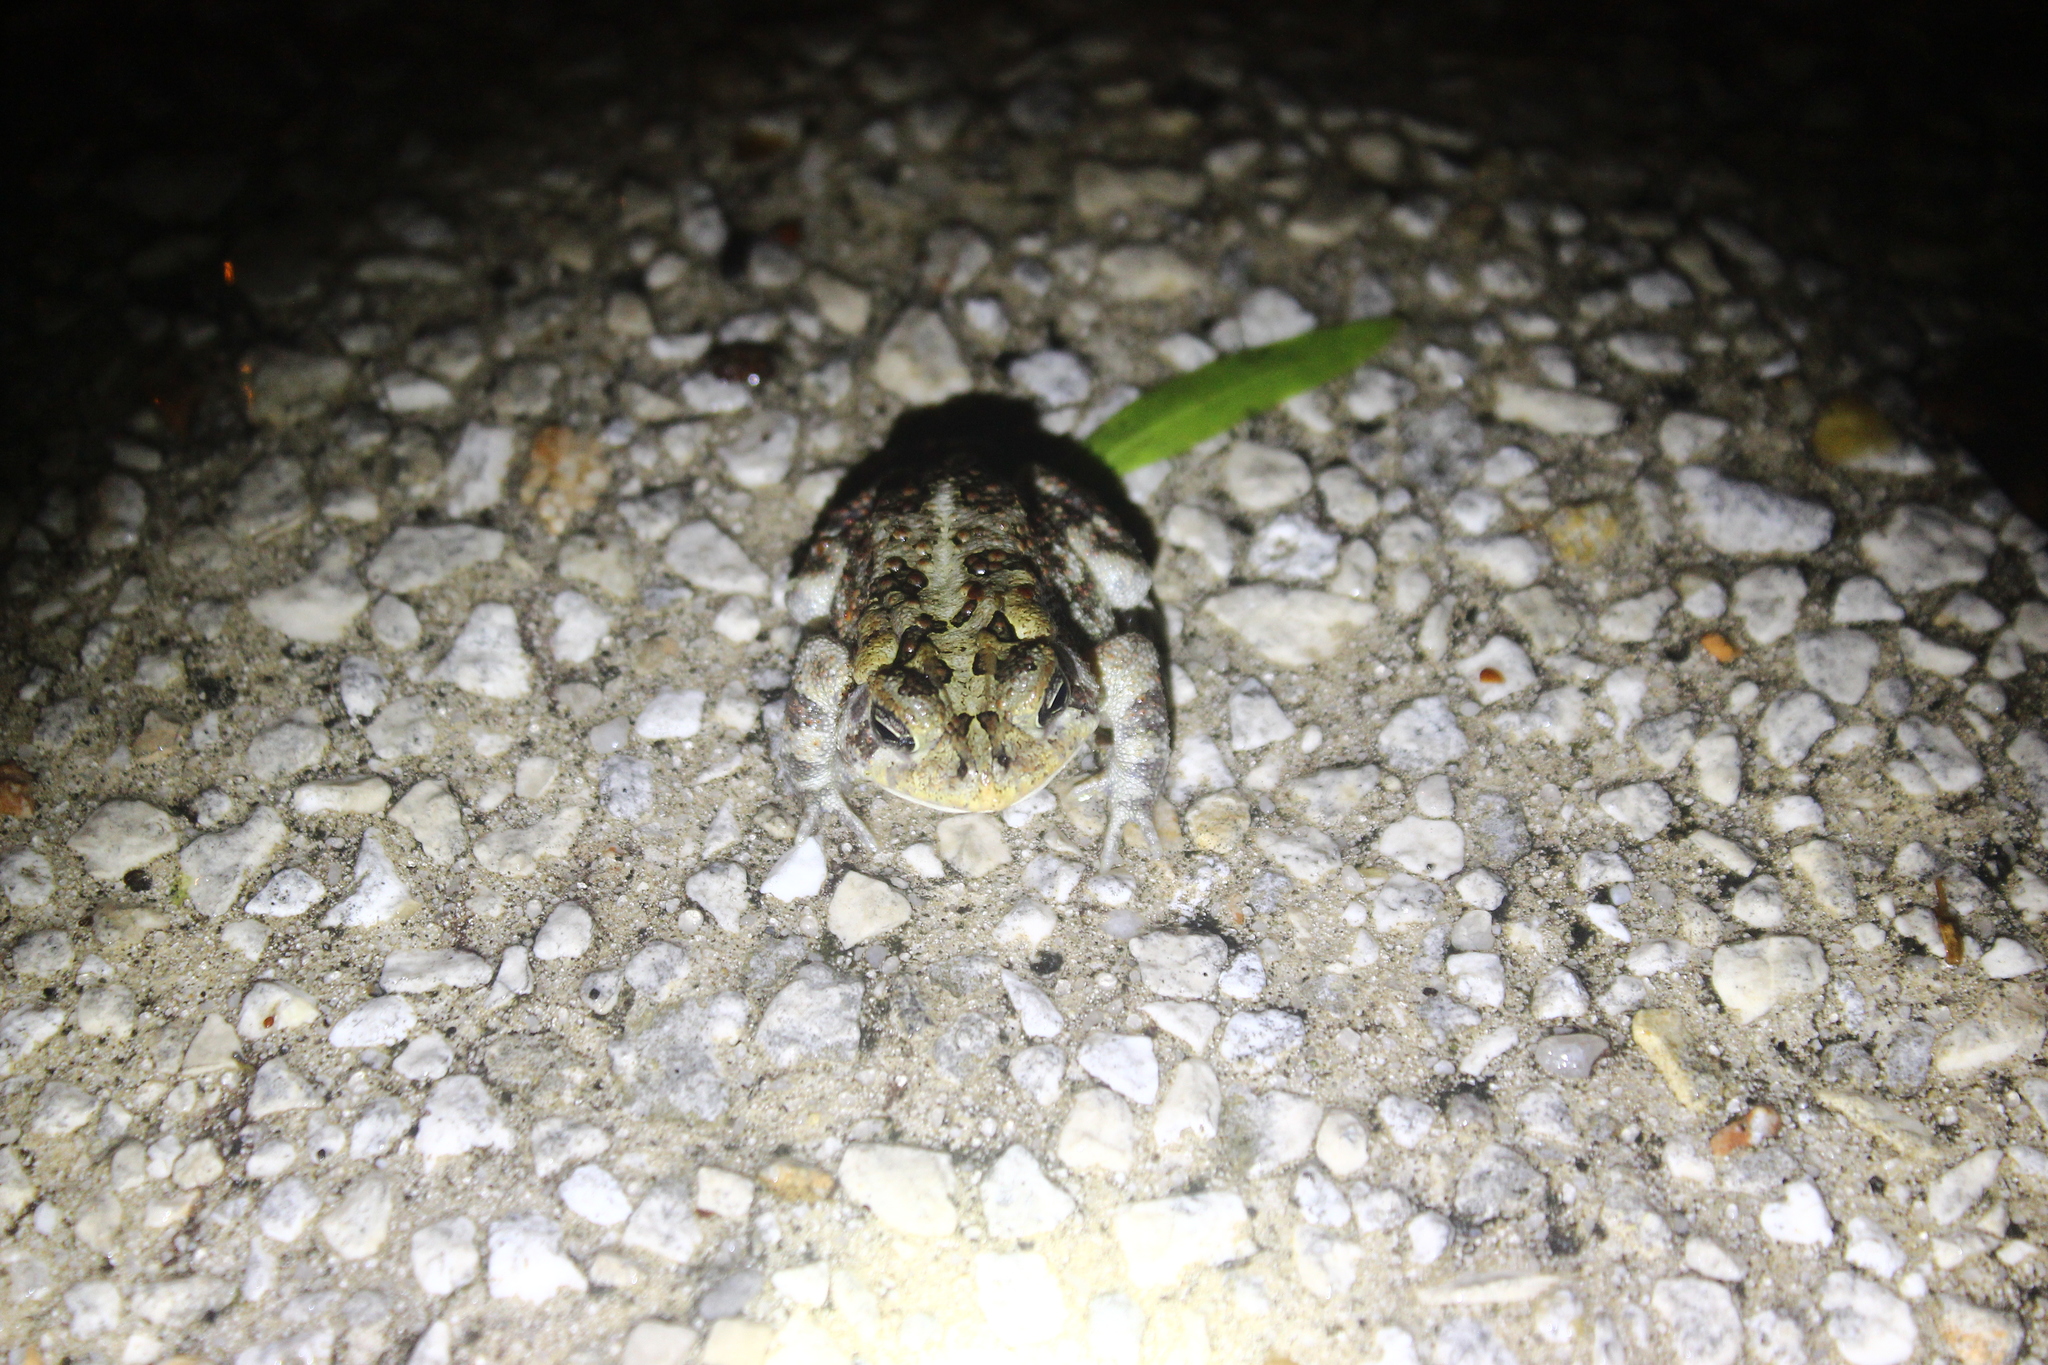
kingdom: Animalia
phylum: Chordata
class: Amphibia
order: Anura
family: Bufonidae
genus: Anaxyrus
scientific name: Anaxyrus terrestris
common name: Southern toad
